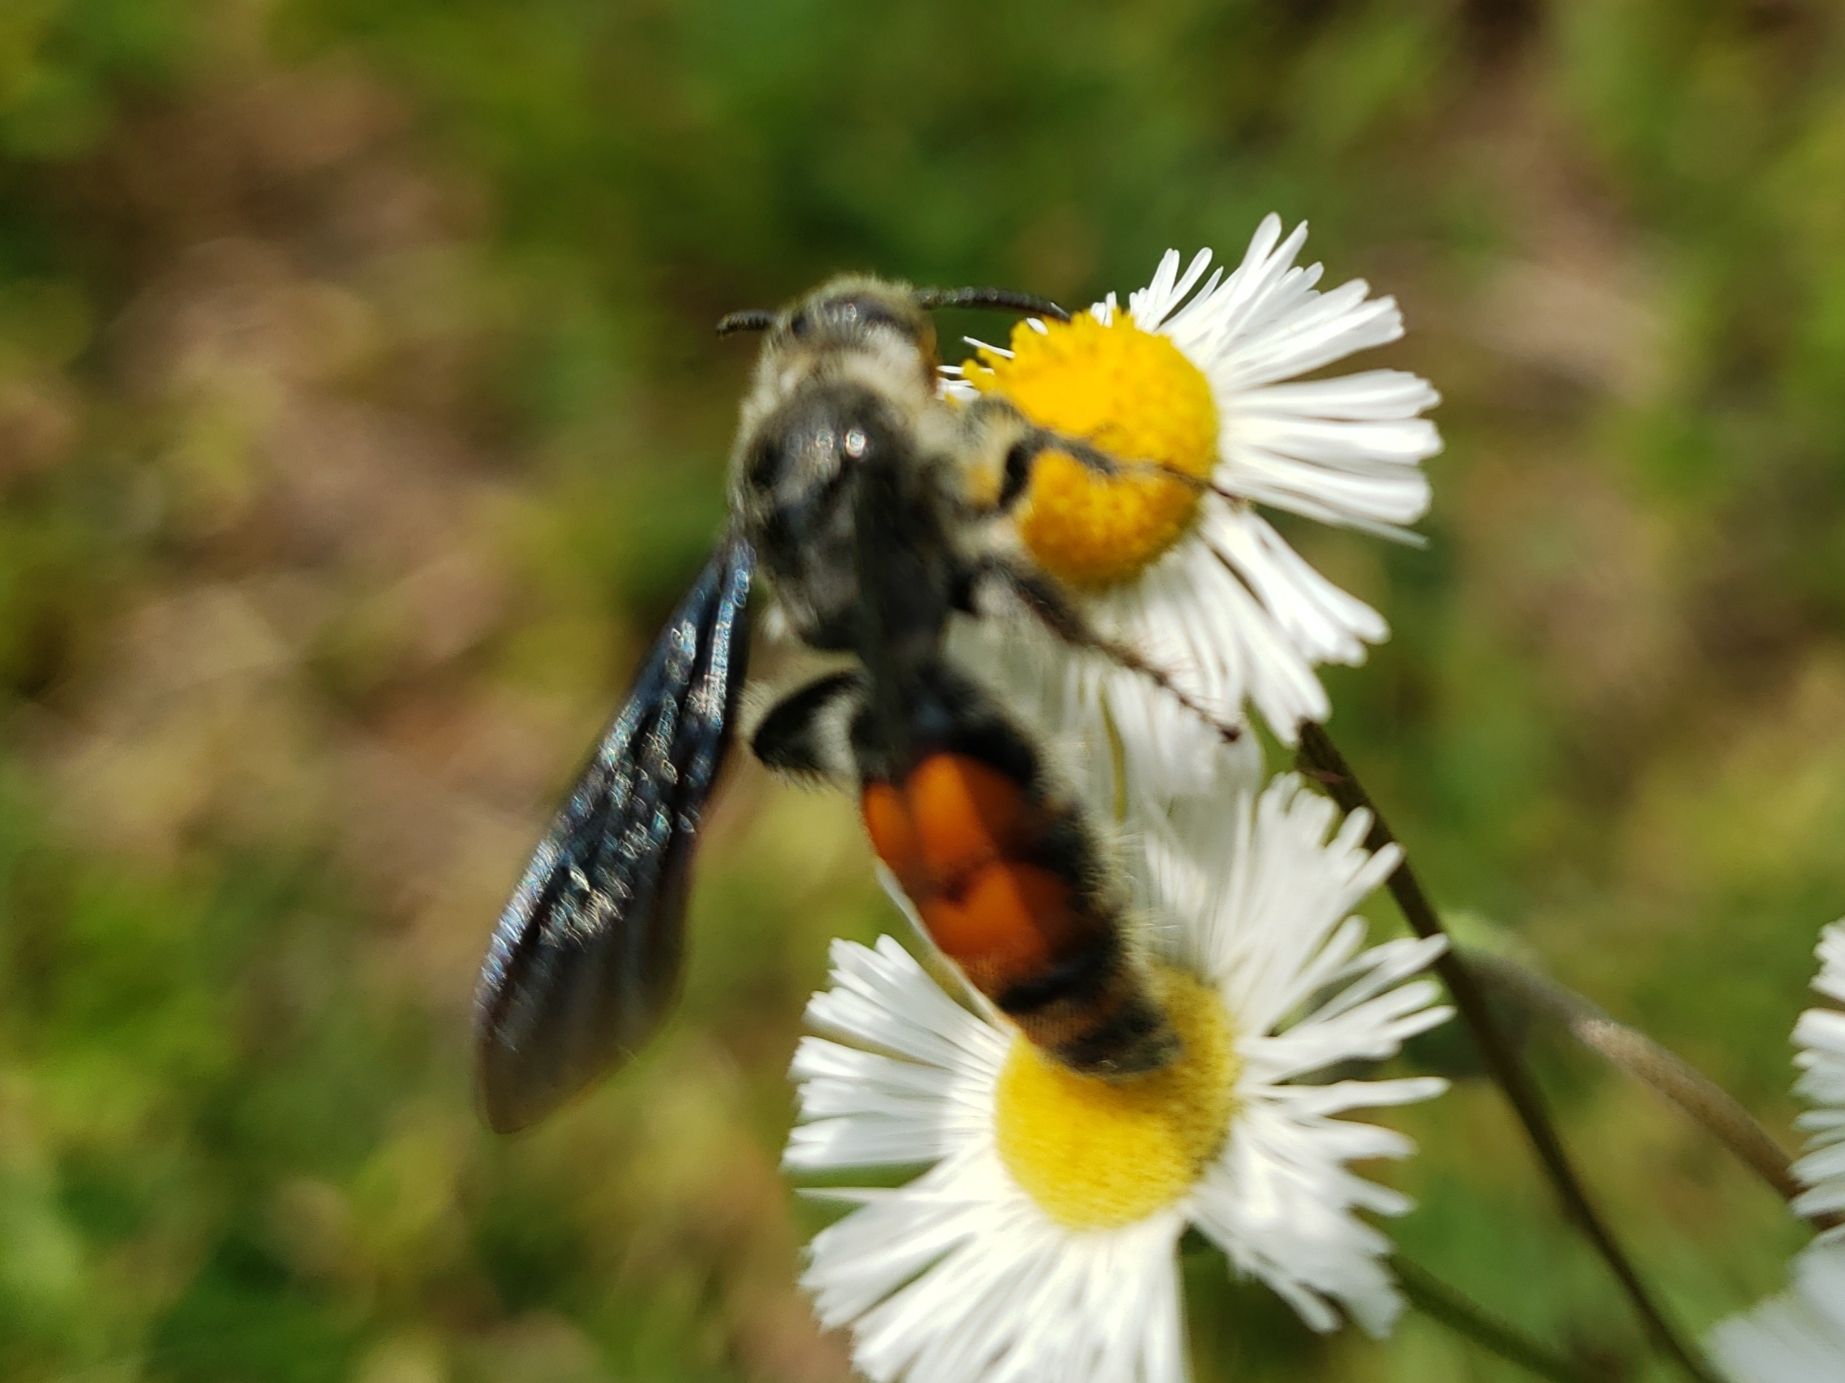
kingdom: Animalia
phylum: Arthropoda
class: Insecta
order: Hymenoptera
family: Scoliidae
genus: Dielis
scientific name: Dielis dorsata
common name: Scoliid wasp
